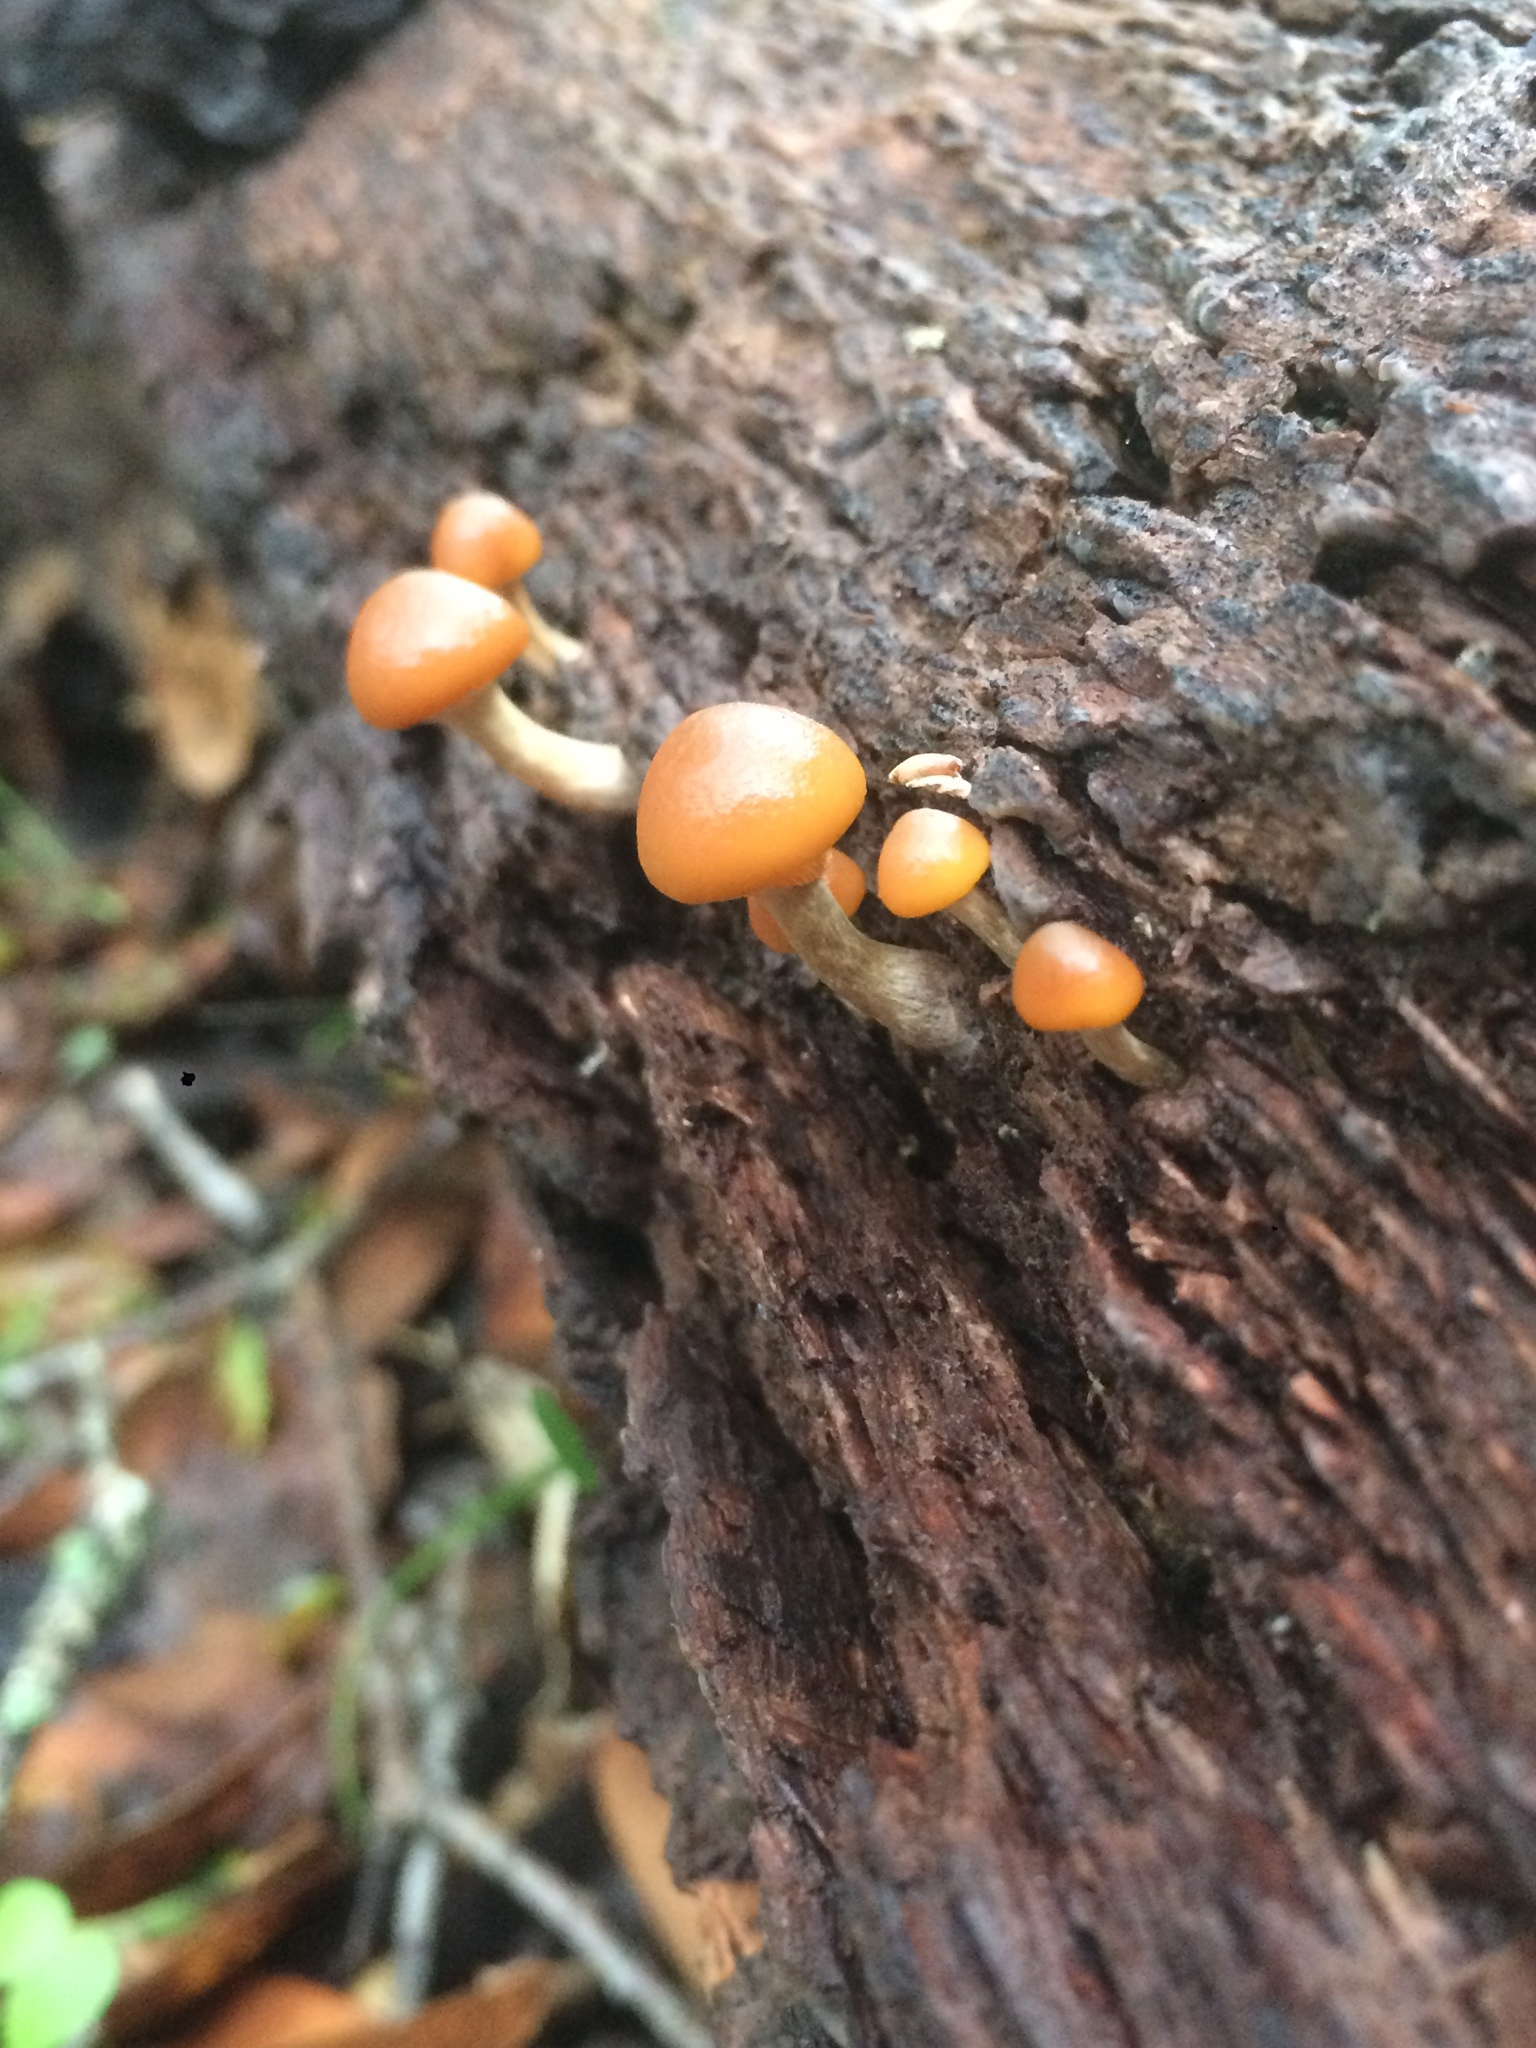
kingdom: Fungi
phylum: Basidiomycota
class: Agaricomycetes
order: Agaricales
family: Hymenogastraceae
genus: Galerina
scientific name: Galerina marginata
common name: Funeral bell
